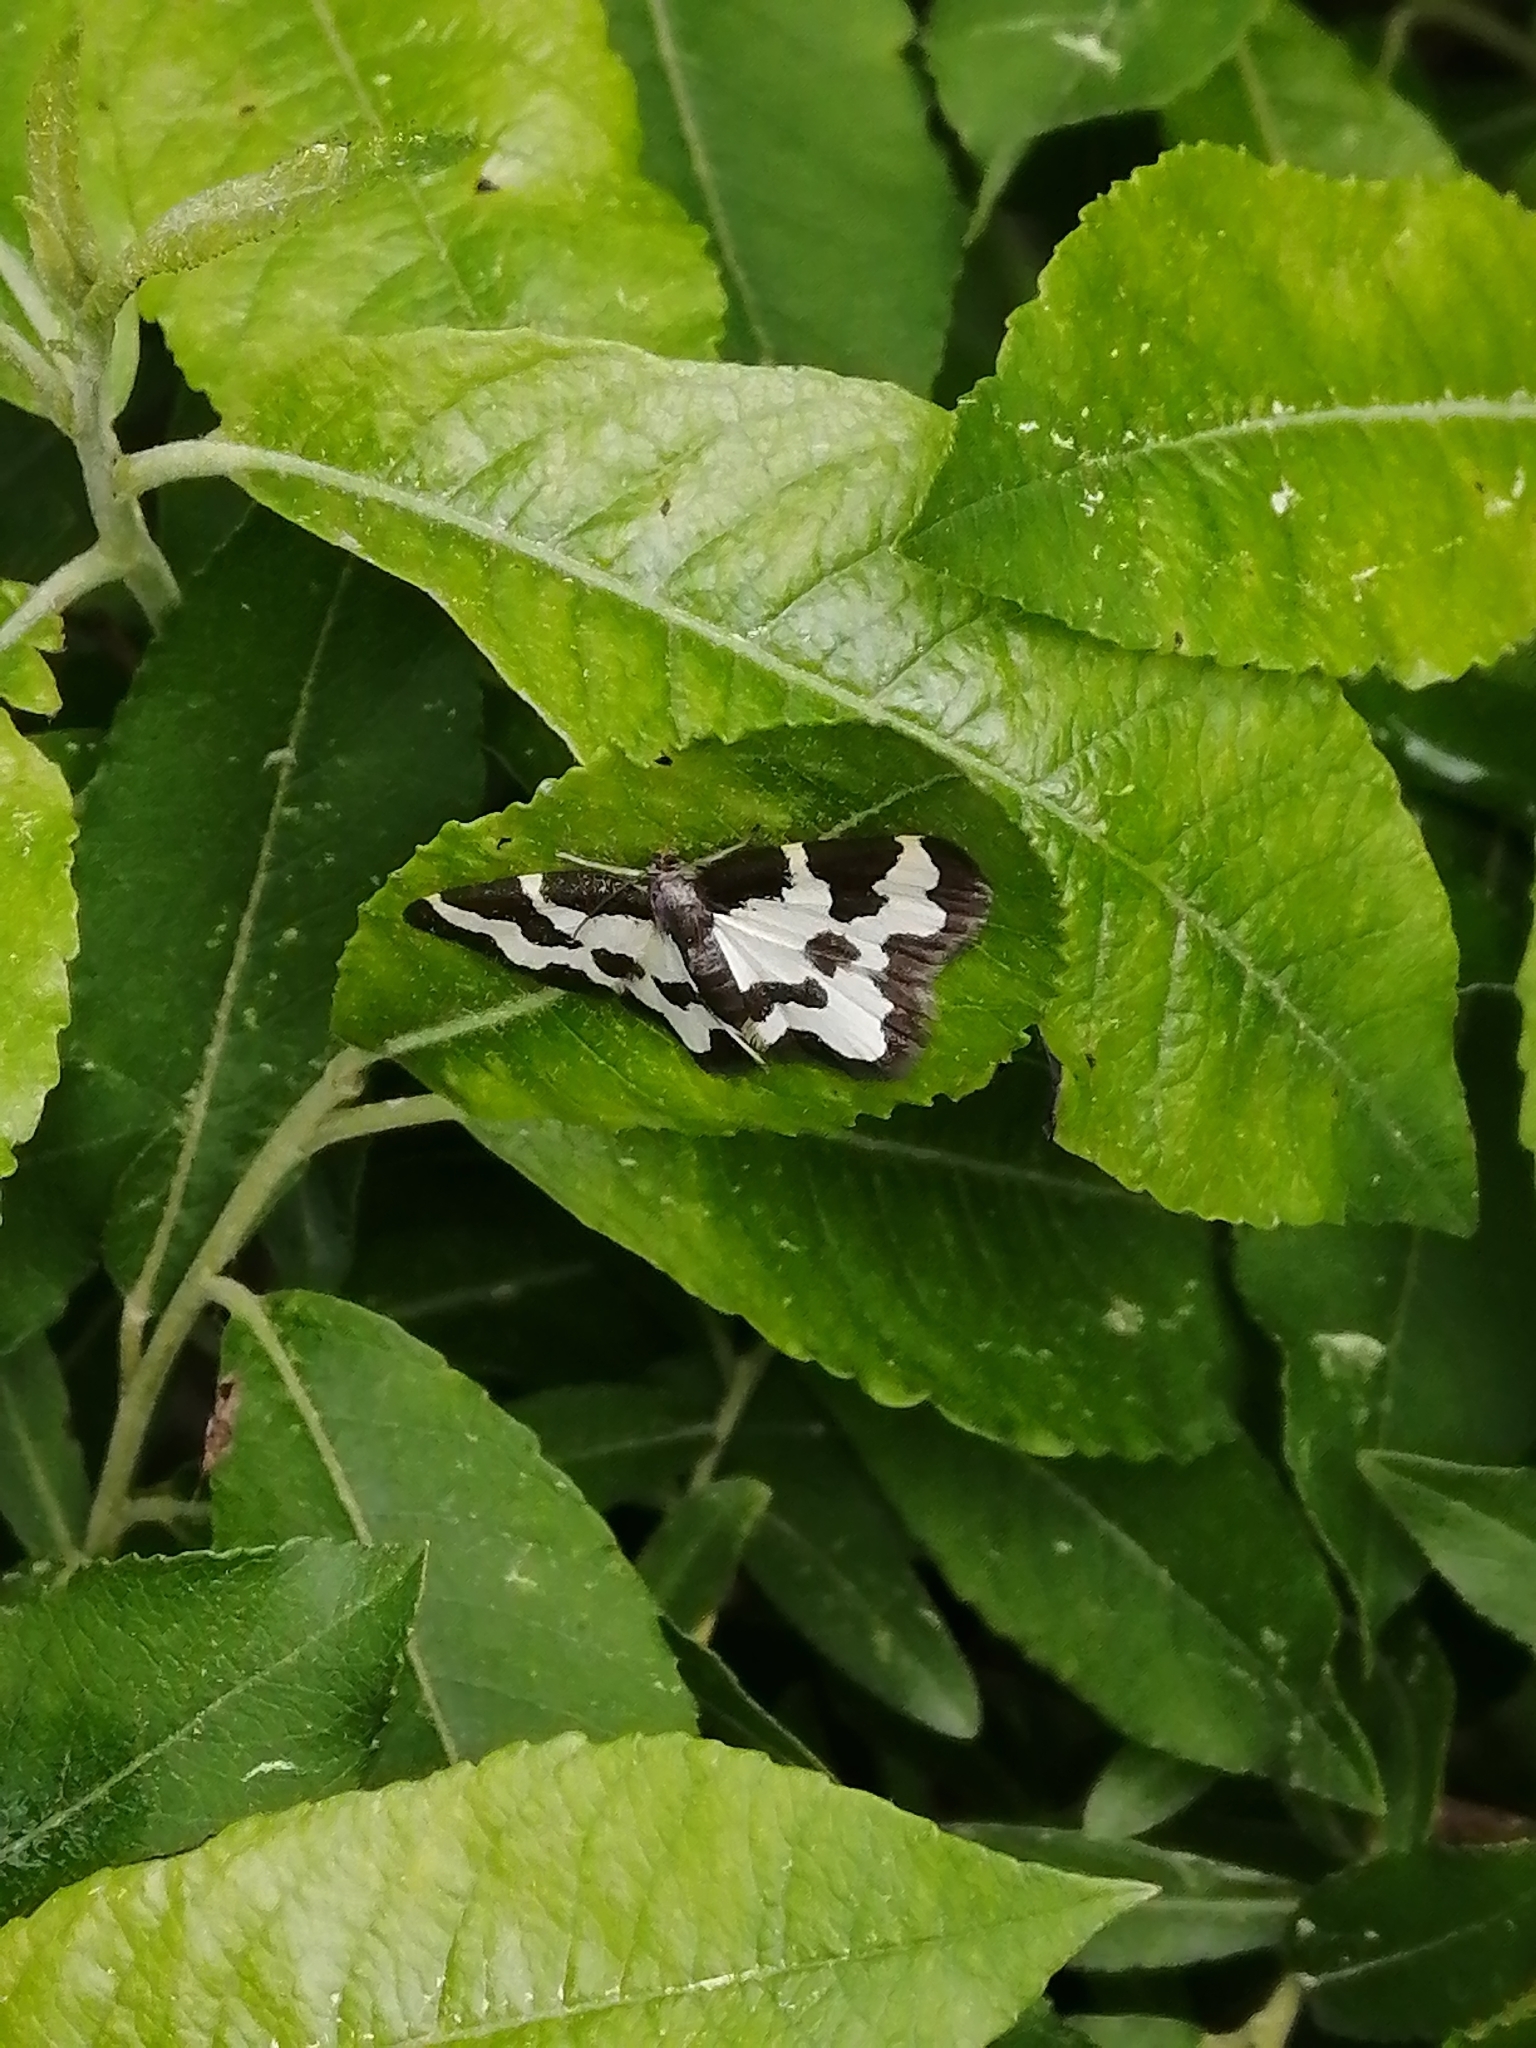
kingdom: Animalia
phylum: Arthropoda
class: Insecta
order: Lepidoptera
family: Geometridae
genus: Lomaspilis
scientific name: Lomaspilis marginata
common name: Clouded border
